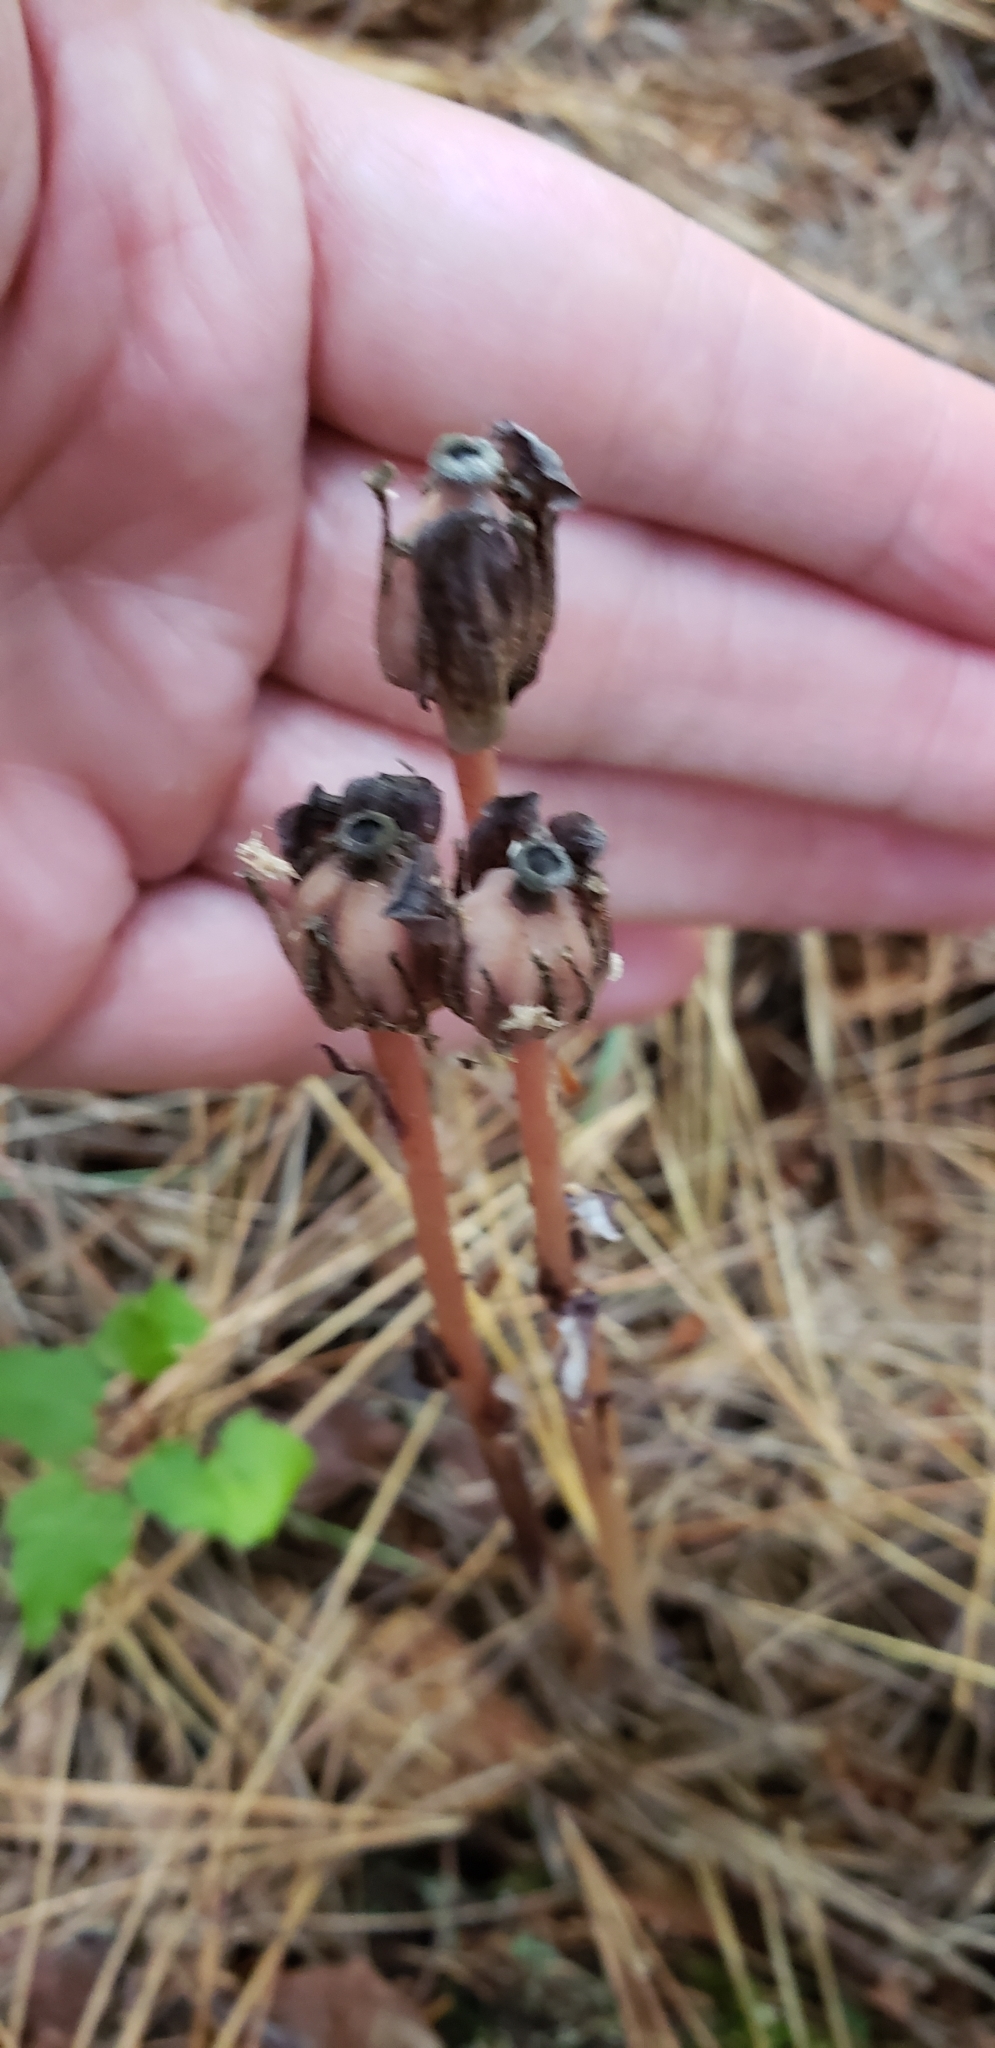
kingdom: Plantae
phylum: Tracheophyta
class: Magnoliopsida
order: Ericales
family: Ericaceae
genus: Monotropa
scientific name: Monotropa uniflora
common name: Convulsion root
